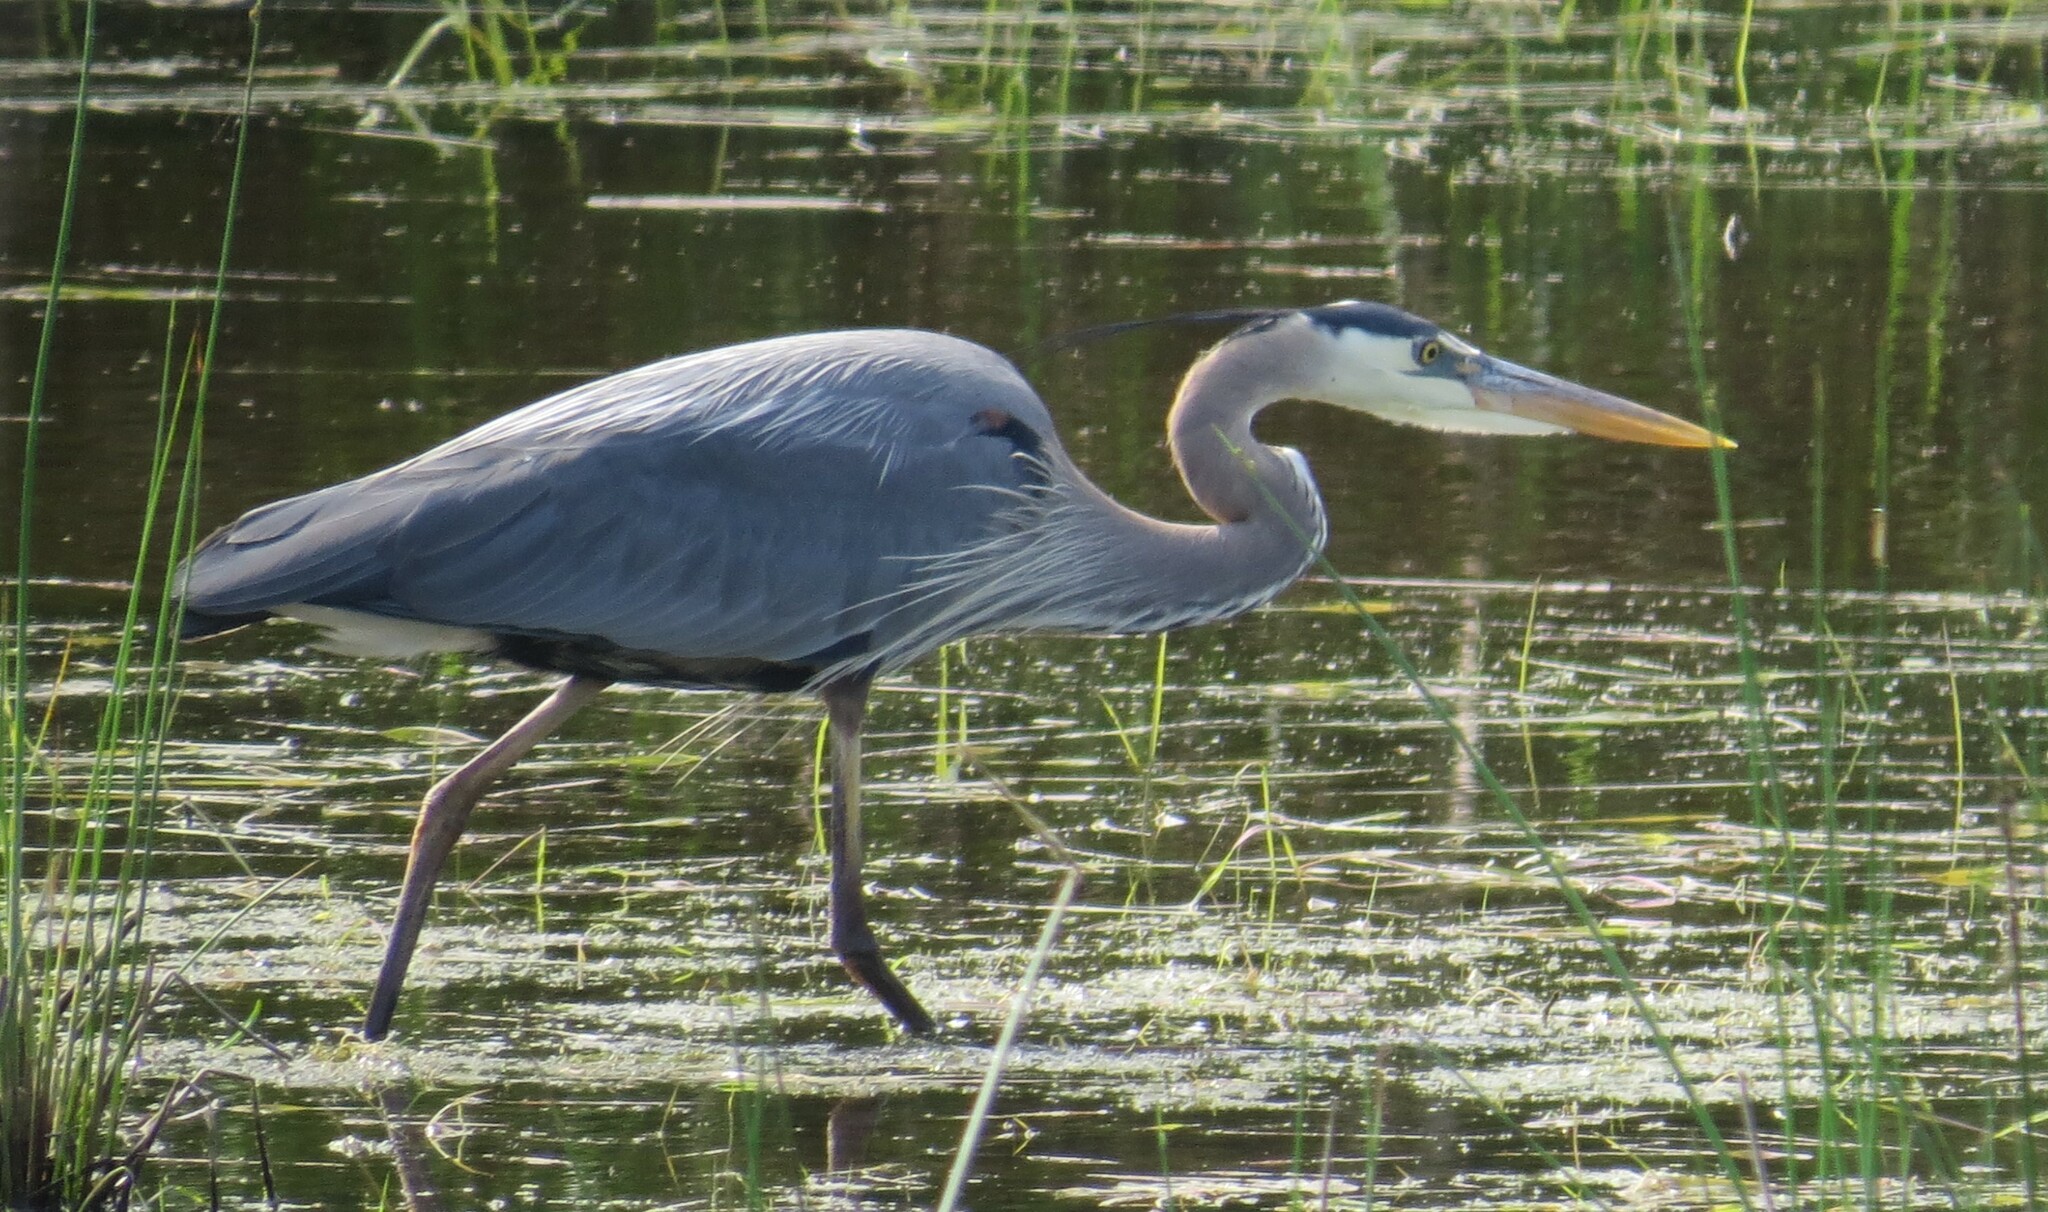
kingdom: Animalia
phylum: Chordata
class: Aves
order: Pelecaniformes
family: Ardeidae
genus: Ardea
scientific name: Ardea herodias
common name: Great blue heron
